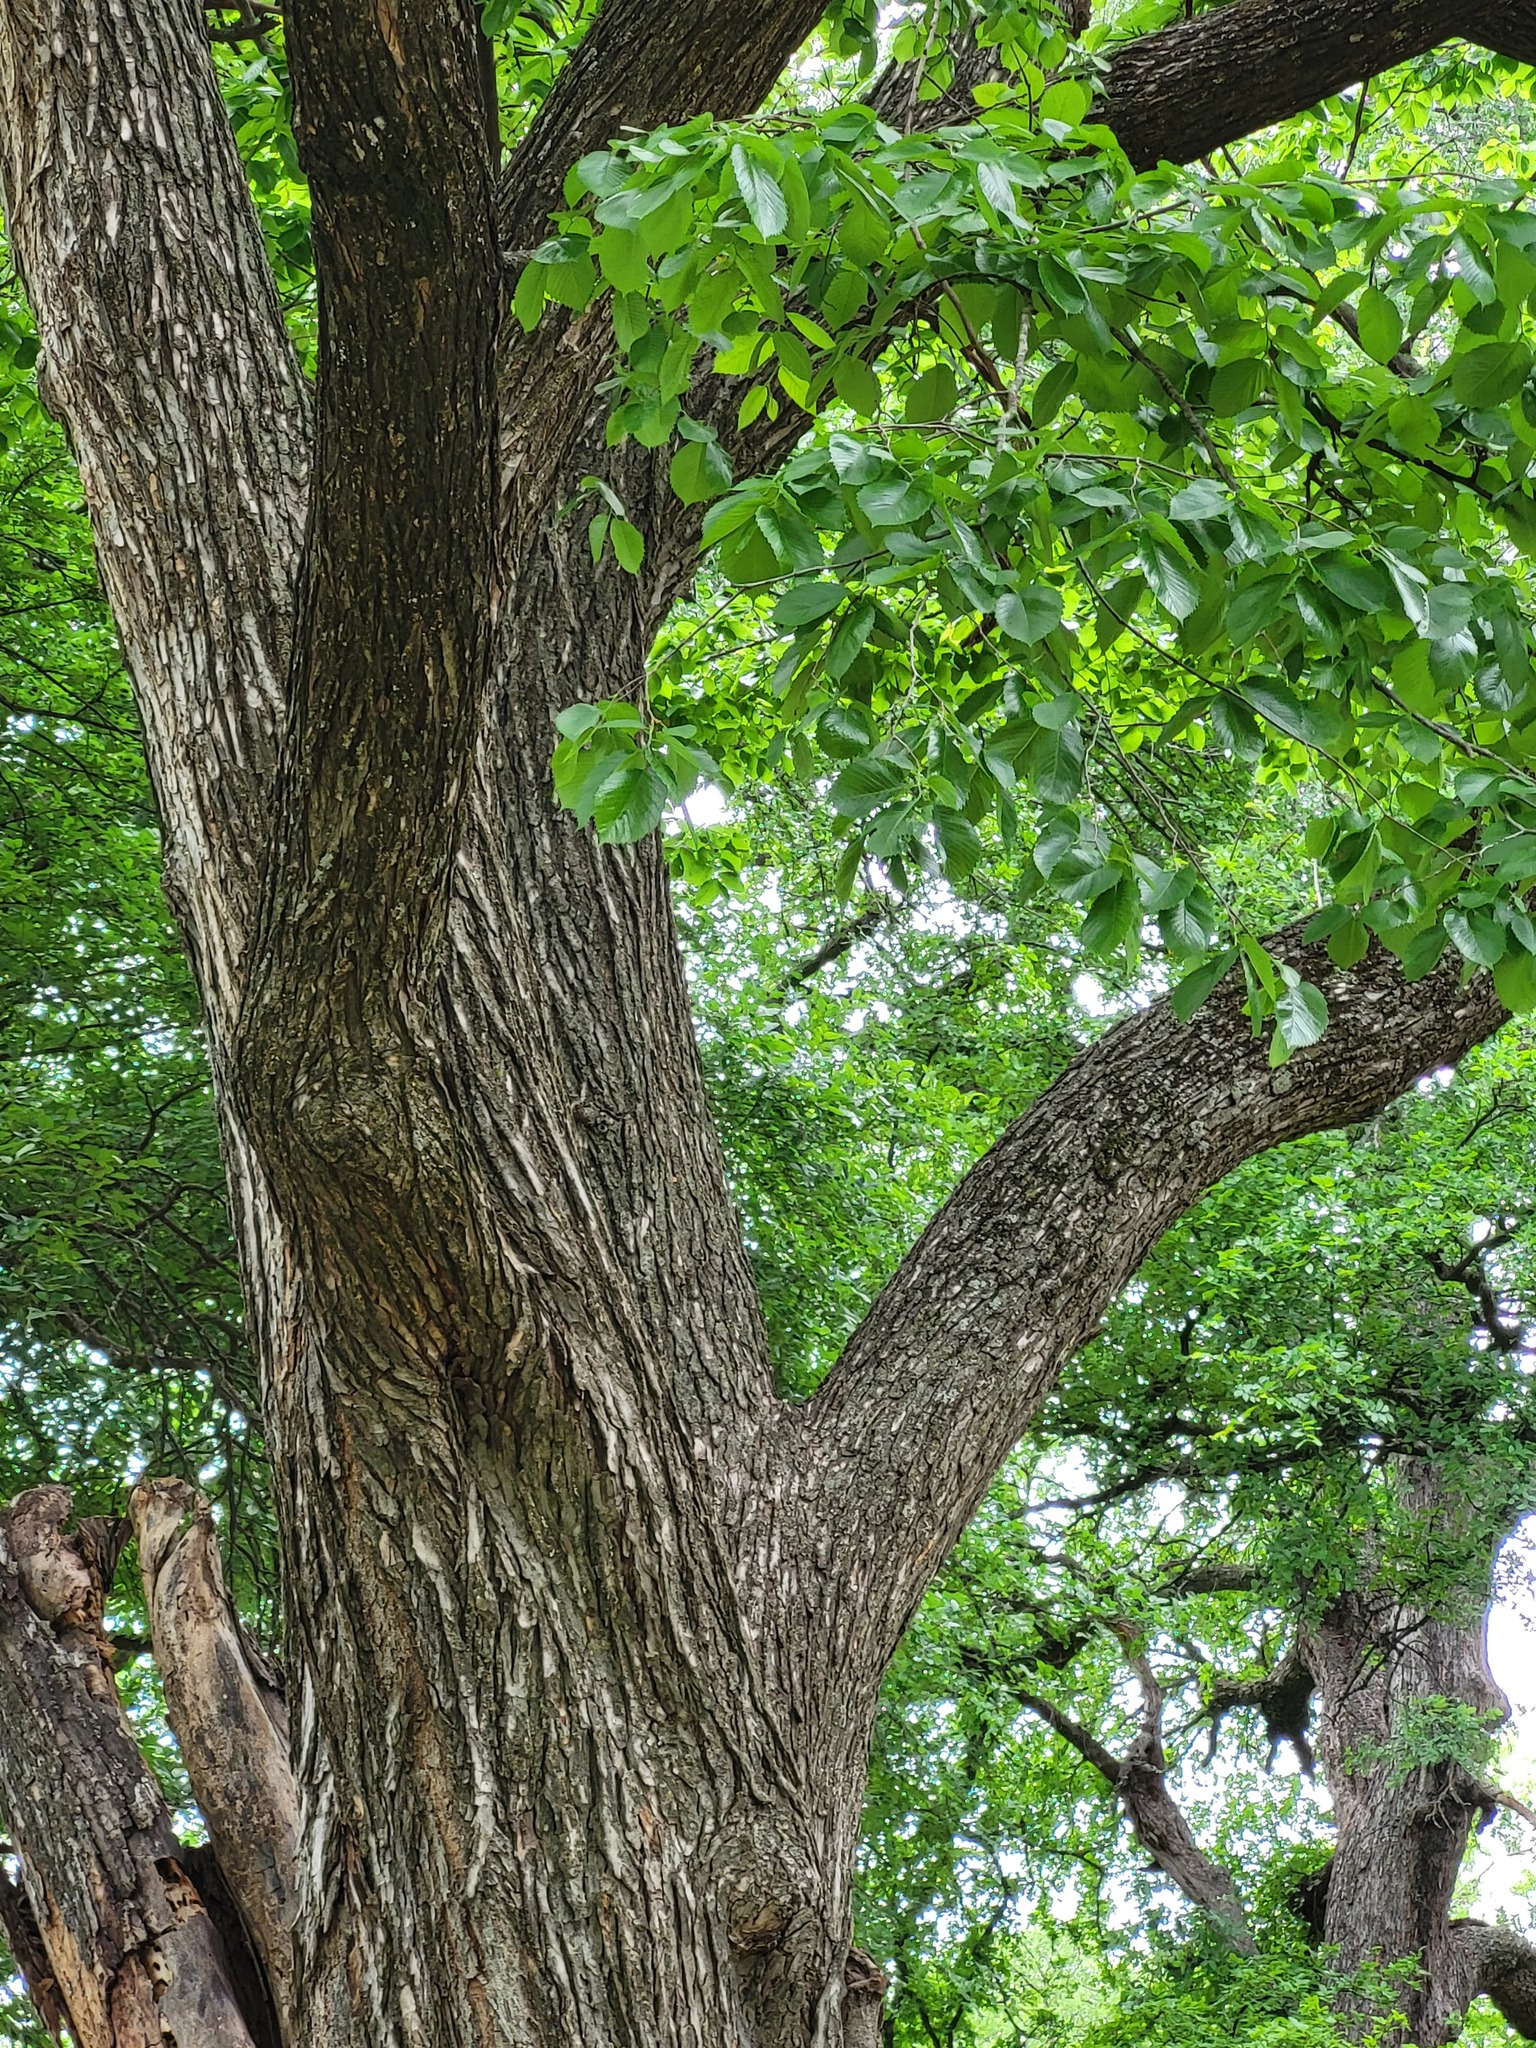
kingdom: Plantae
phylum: Tracheophyta
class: Magnoliopsida
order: Rosales
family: Ulmaceae
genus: Ulmus
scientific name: Ulmus americana
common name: American elm
